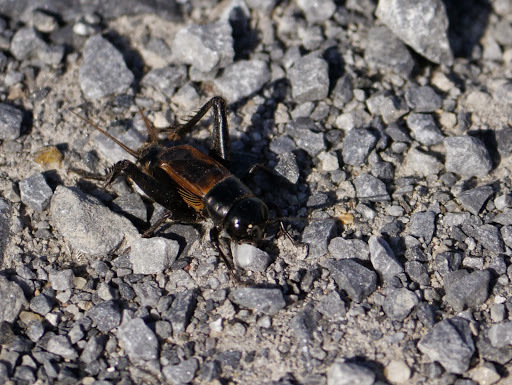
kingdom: Animalia
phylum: Arthropoda
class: Insecta
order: Orthoptera
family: Gryllidae
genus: Gryllus
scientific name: Gryllus pennsylvanicus
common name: Fall field cricket
